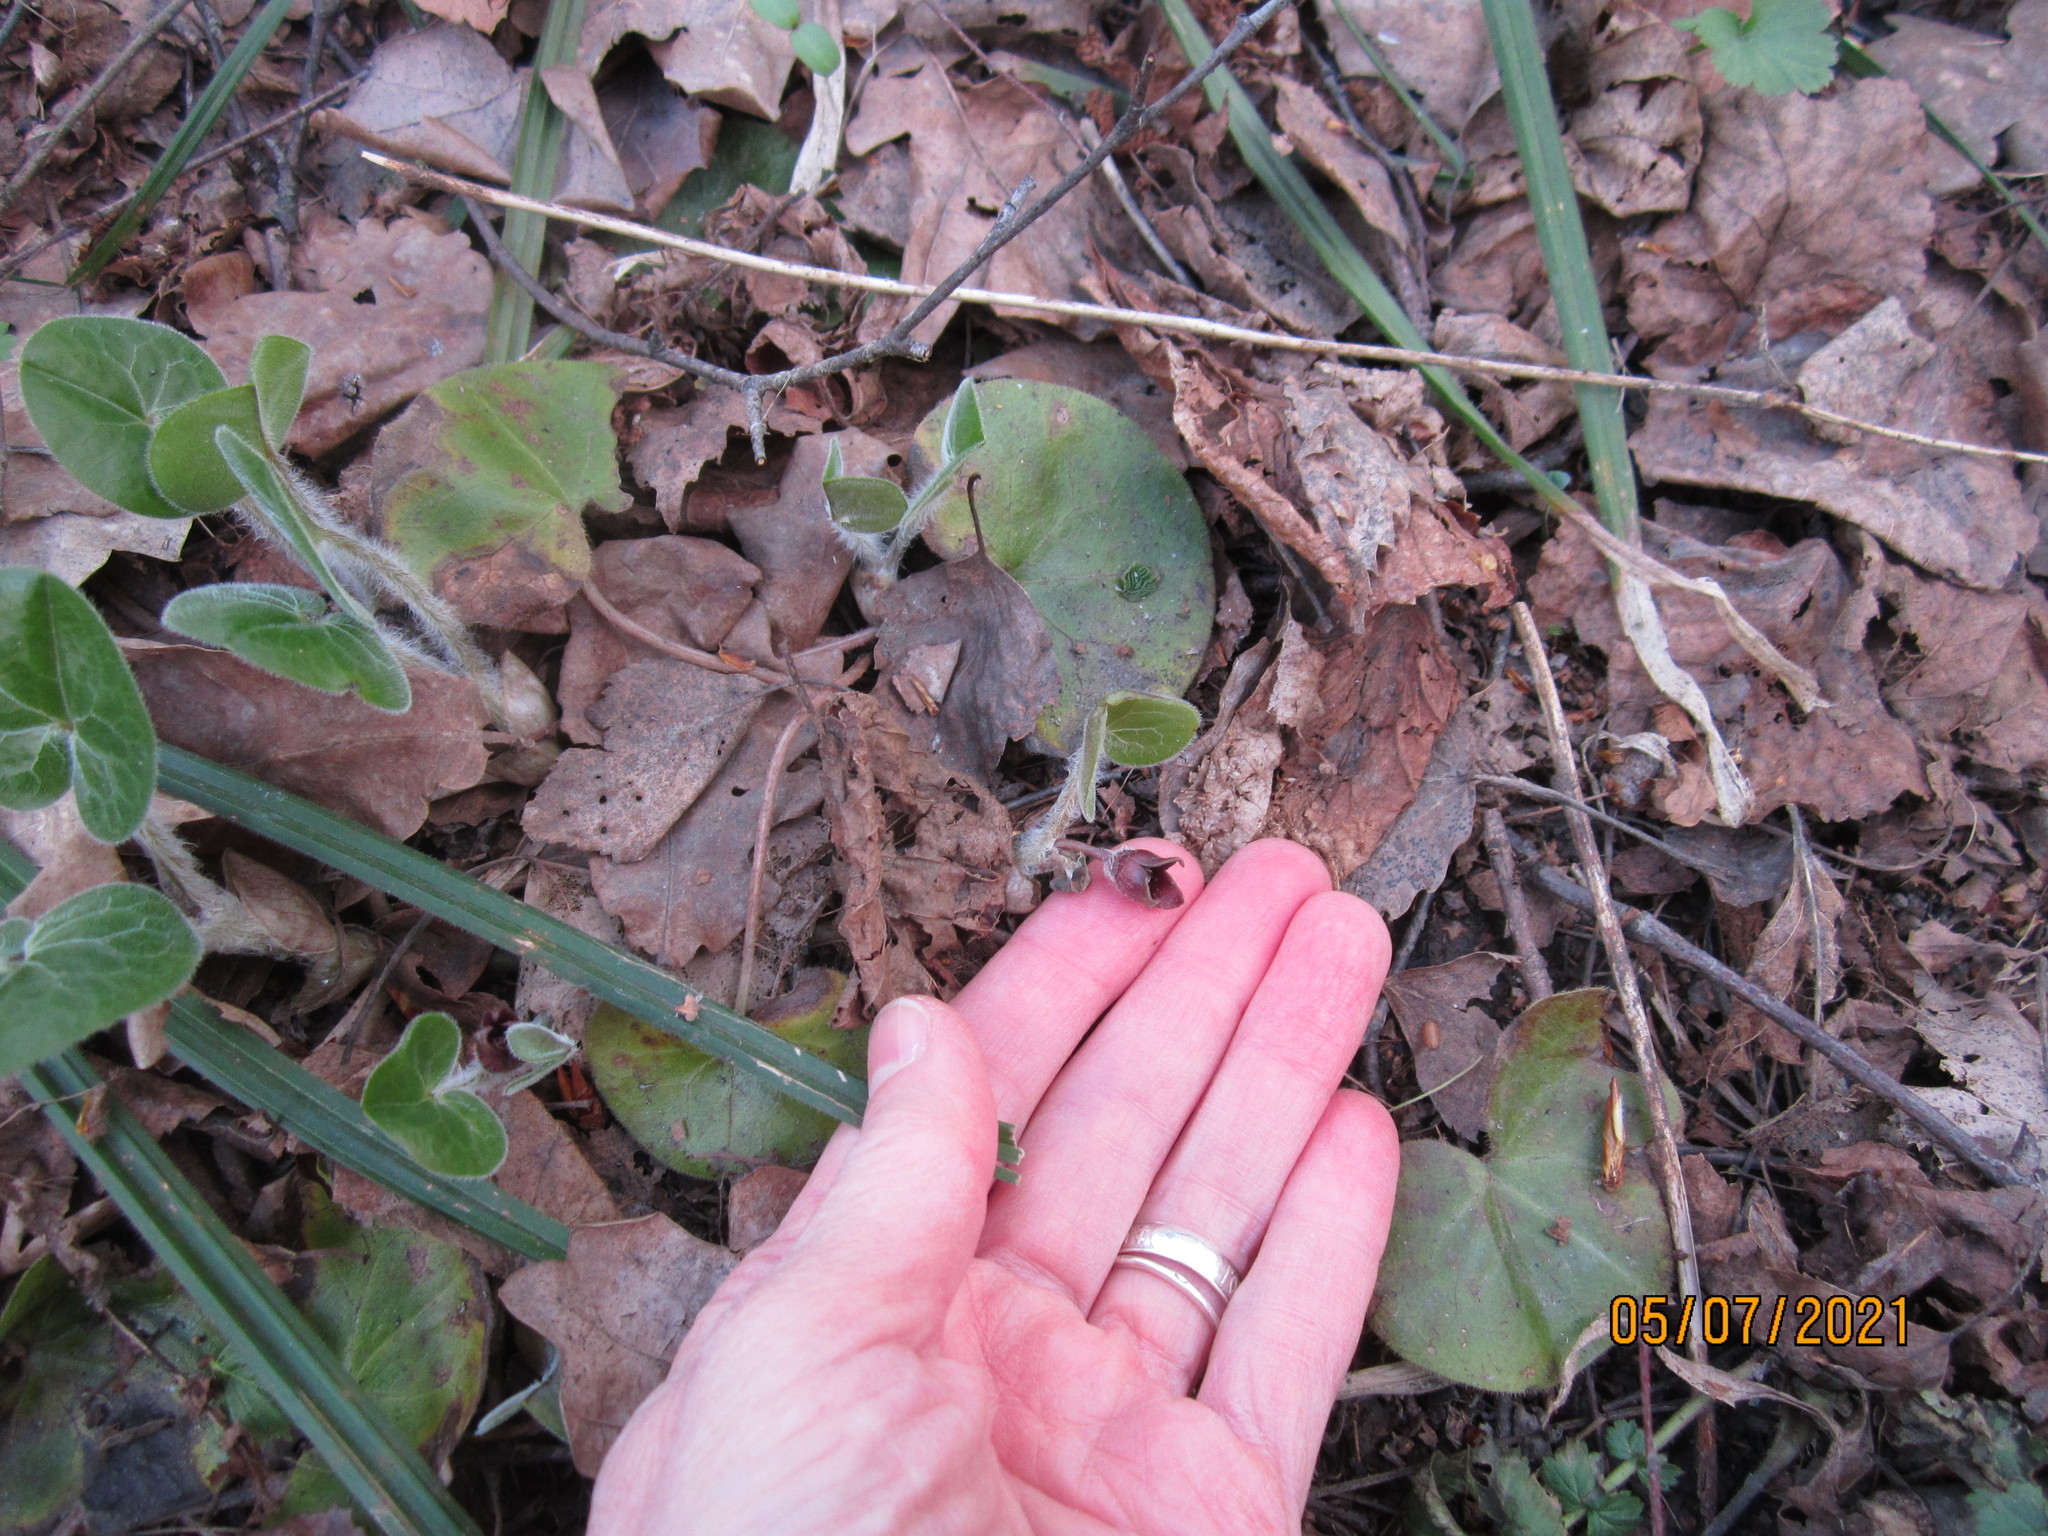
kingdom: Plantae
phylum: Tracheophyta
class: Magnoliopsida
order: Piperales
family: Aristolochiaceae
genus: Asarum
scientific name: Asarum europaeum
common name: Asarabacca
